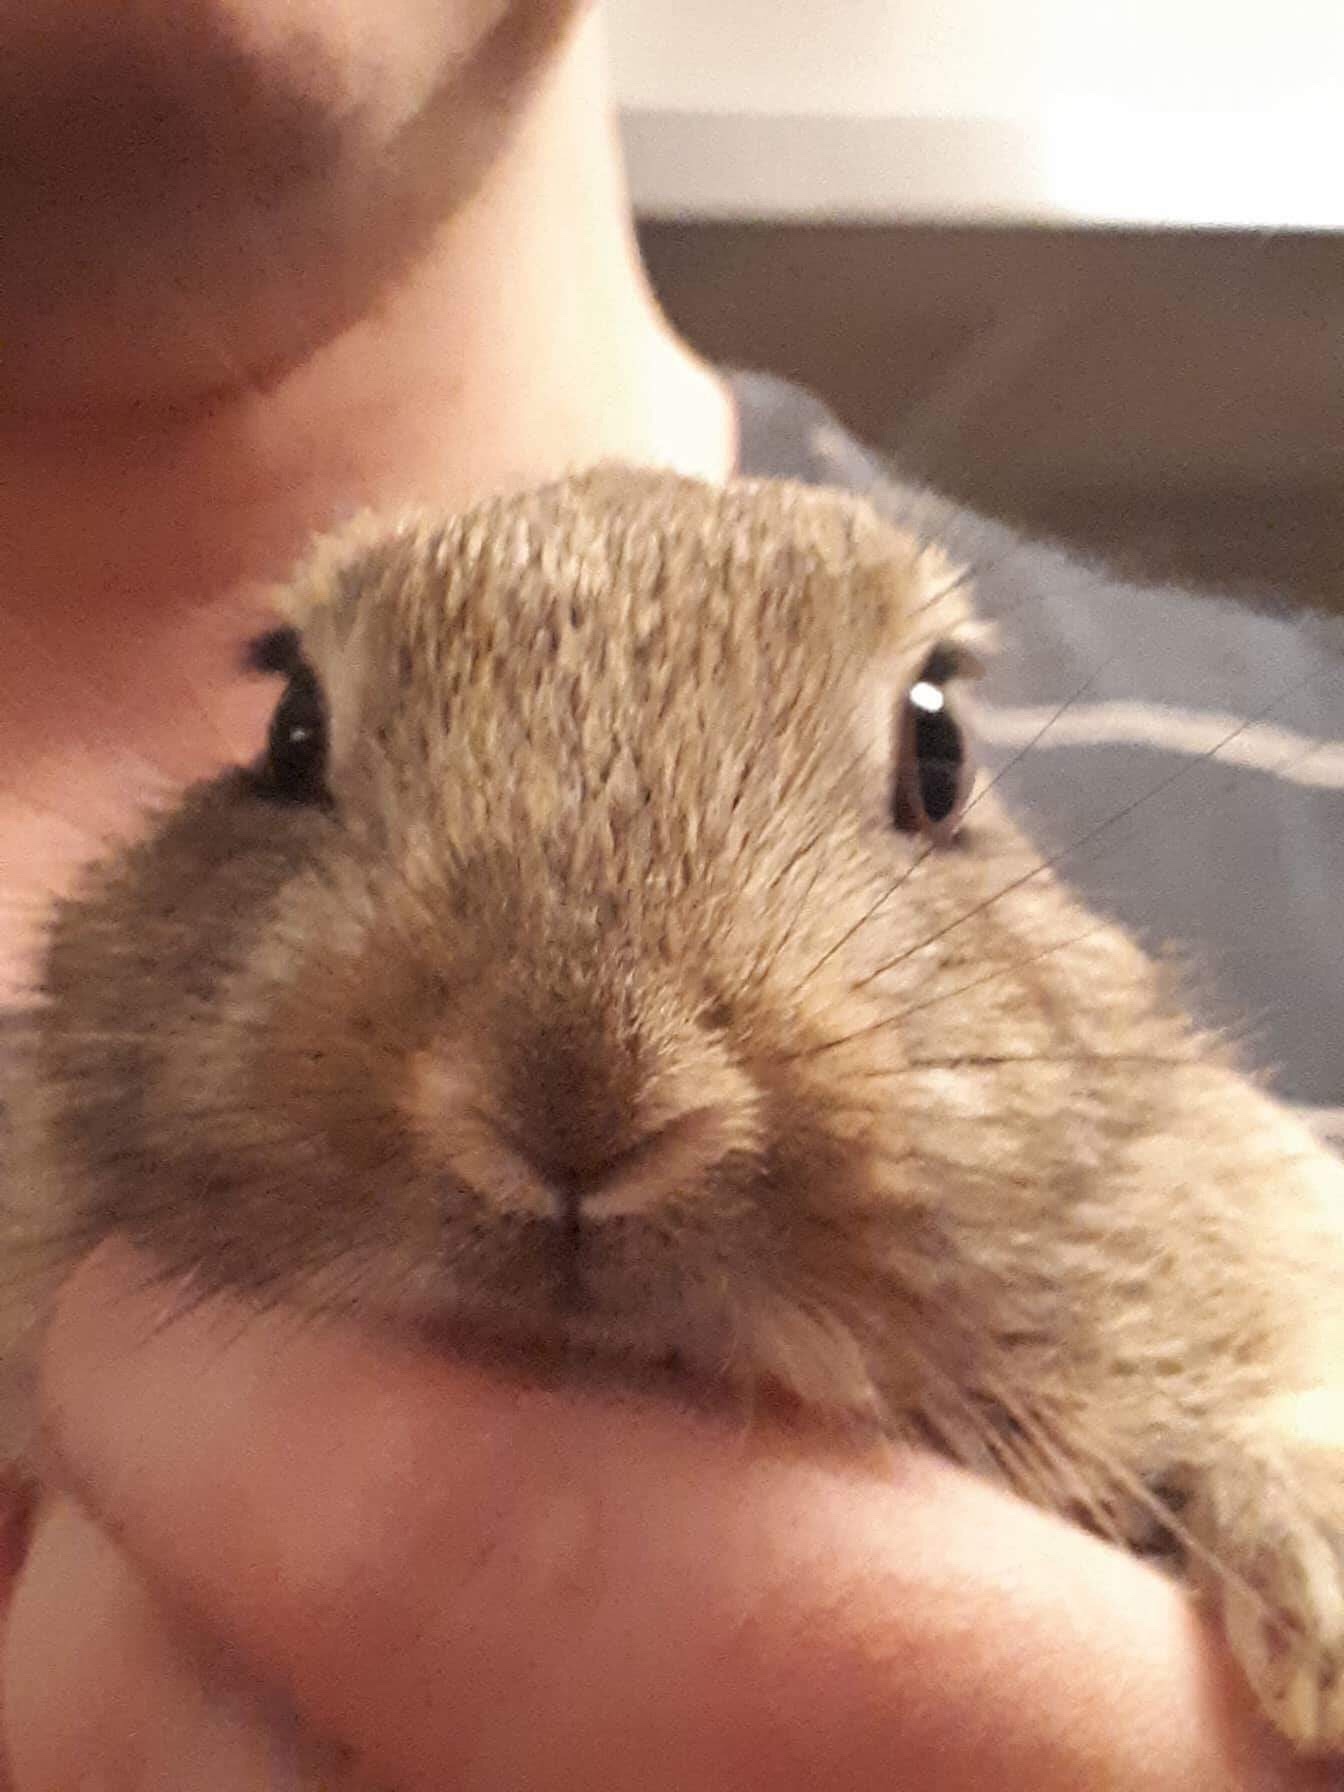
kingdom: Animalia
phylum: Chordata
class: Mammalia
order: Lagomorpha
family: Leporidae
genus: Oryctolagus
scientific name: Oryctolagus cuniculus
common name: European rabbit
